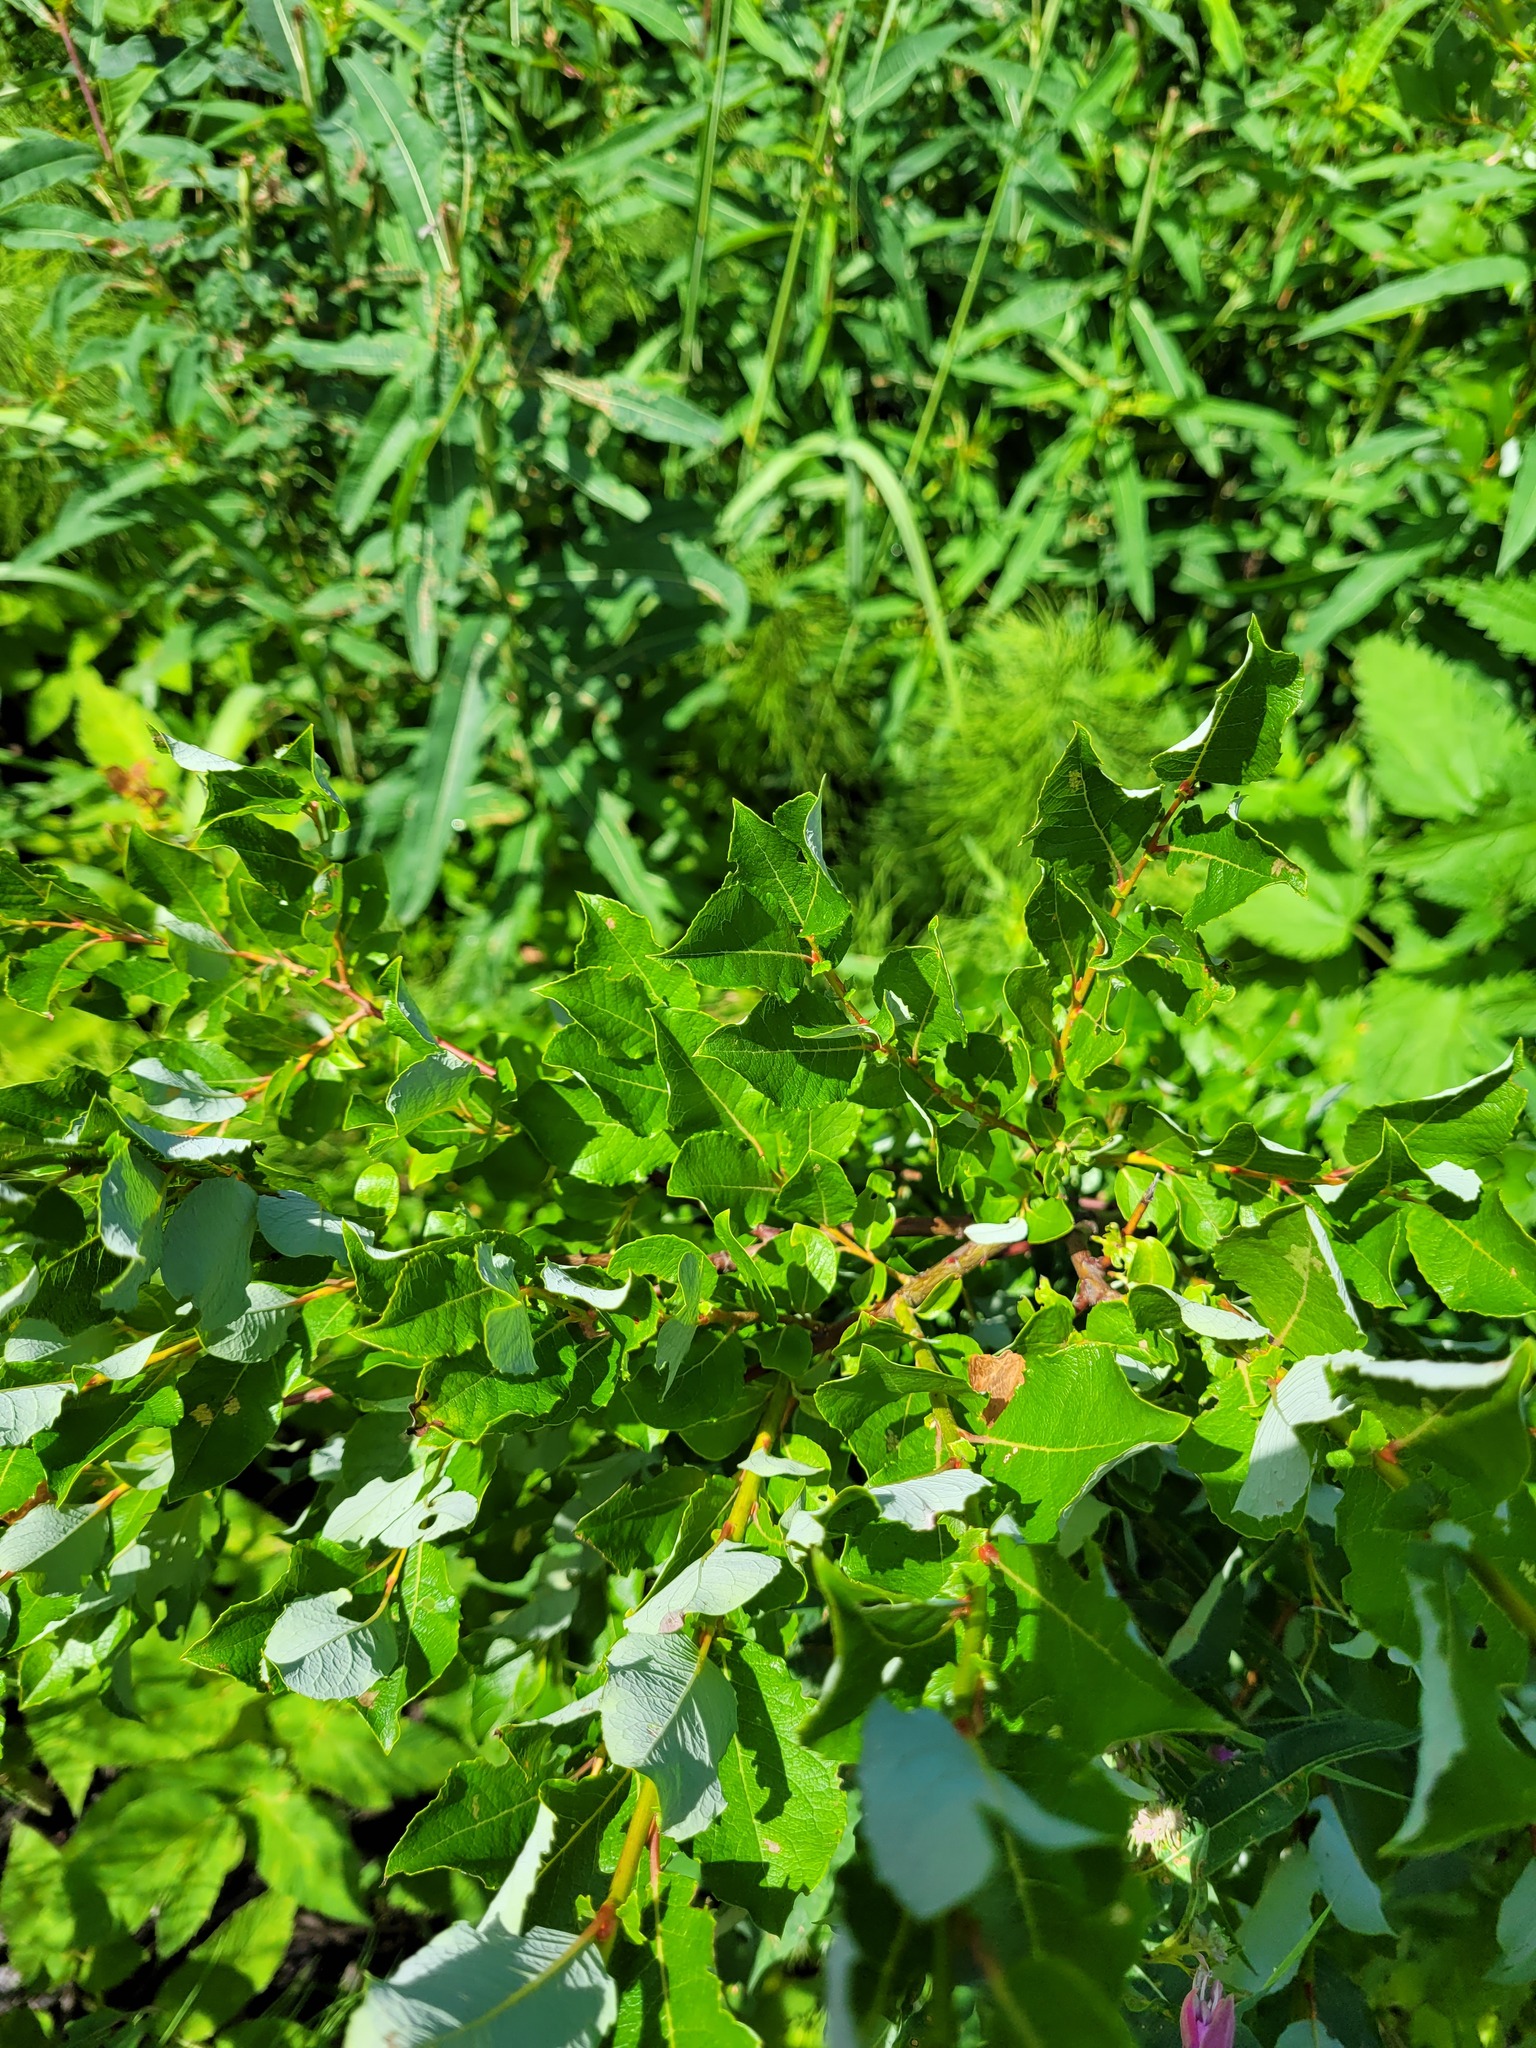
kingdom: Plantae
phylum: Tracheophyta
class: Magnoliopsida
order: Malpighiales
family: Salicaceae
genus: Salix
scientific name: Salix starkeana
